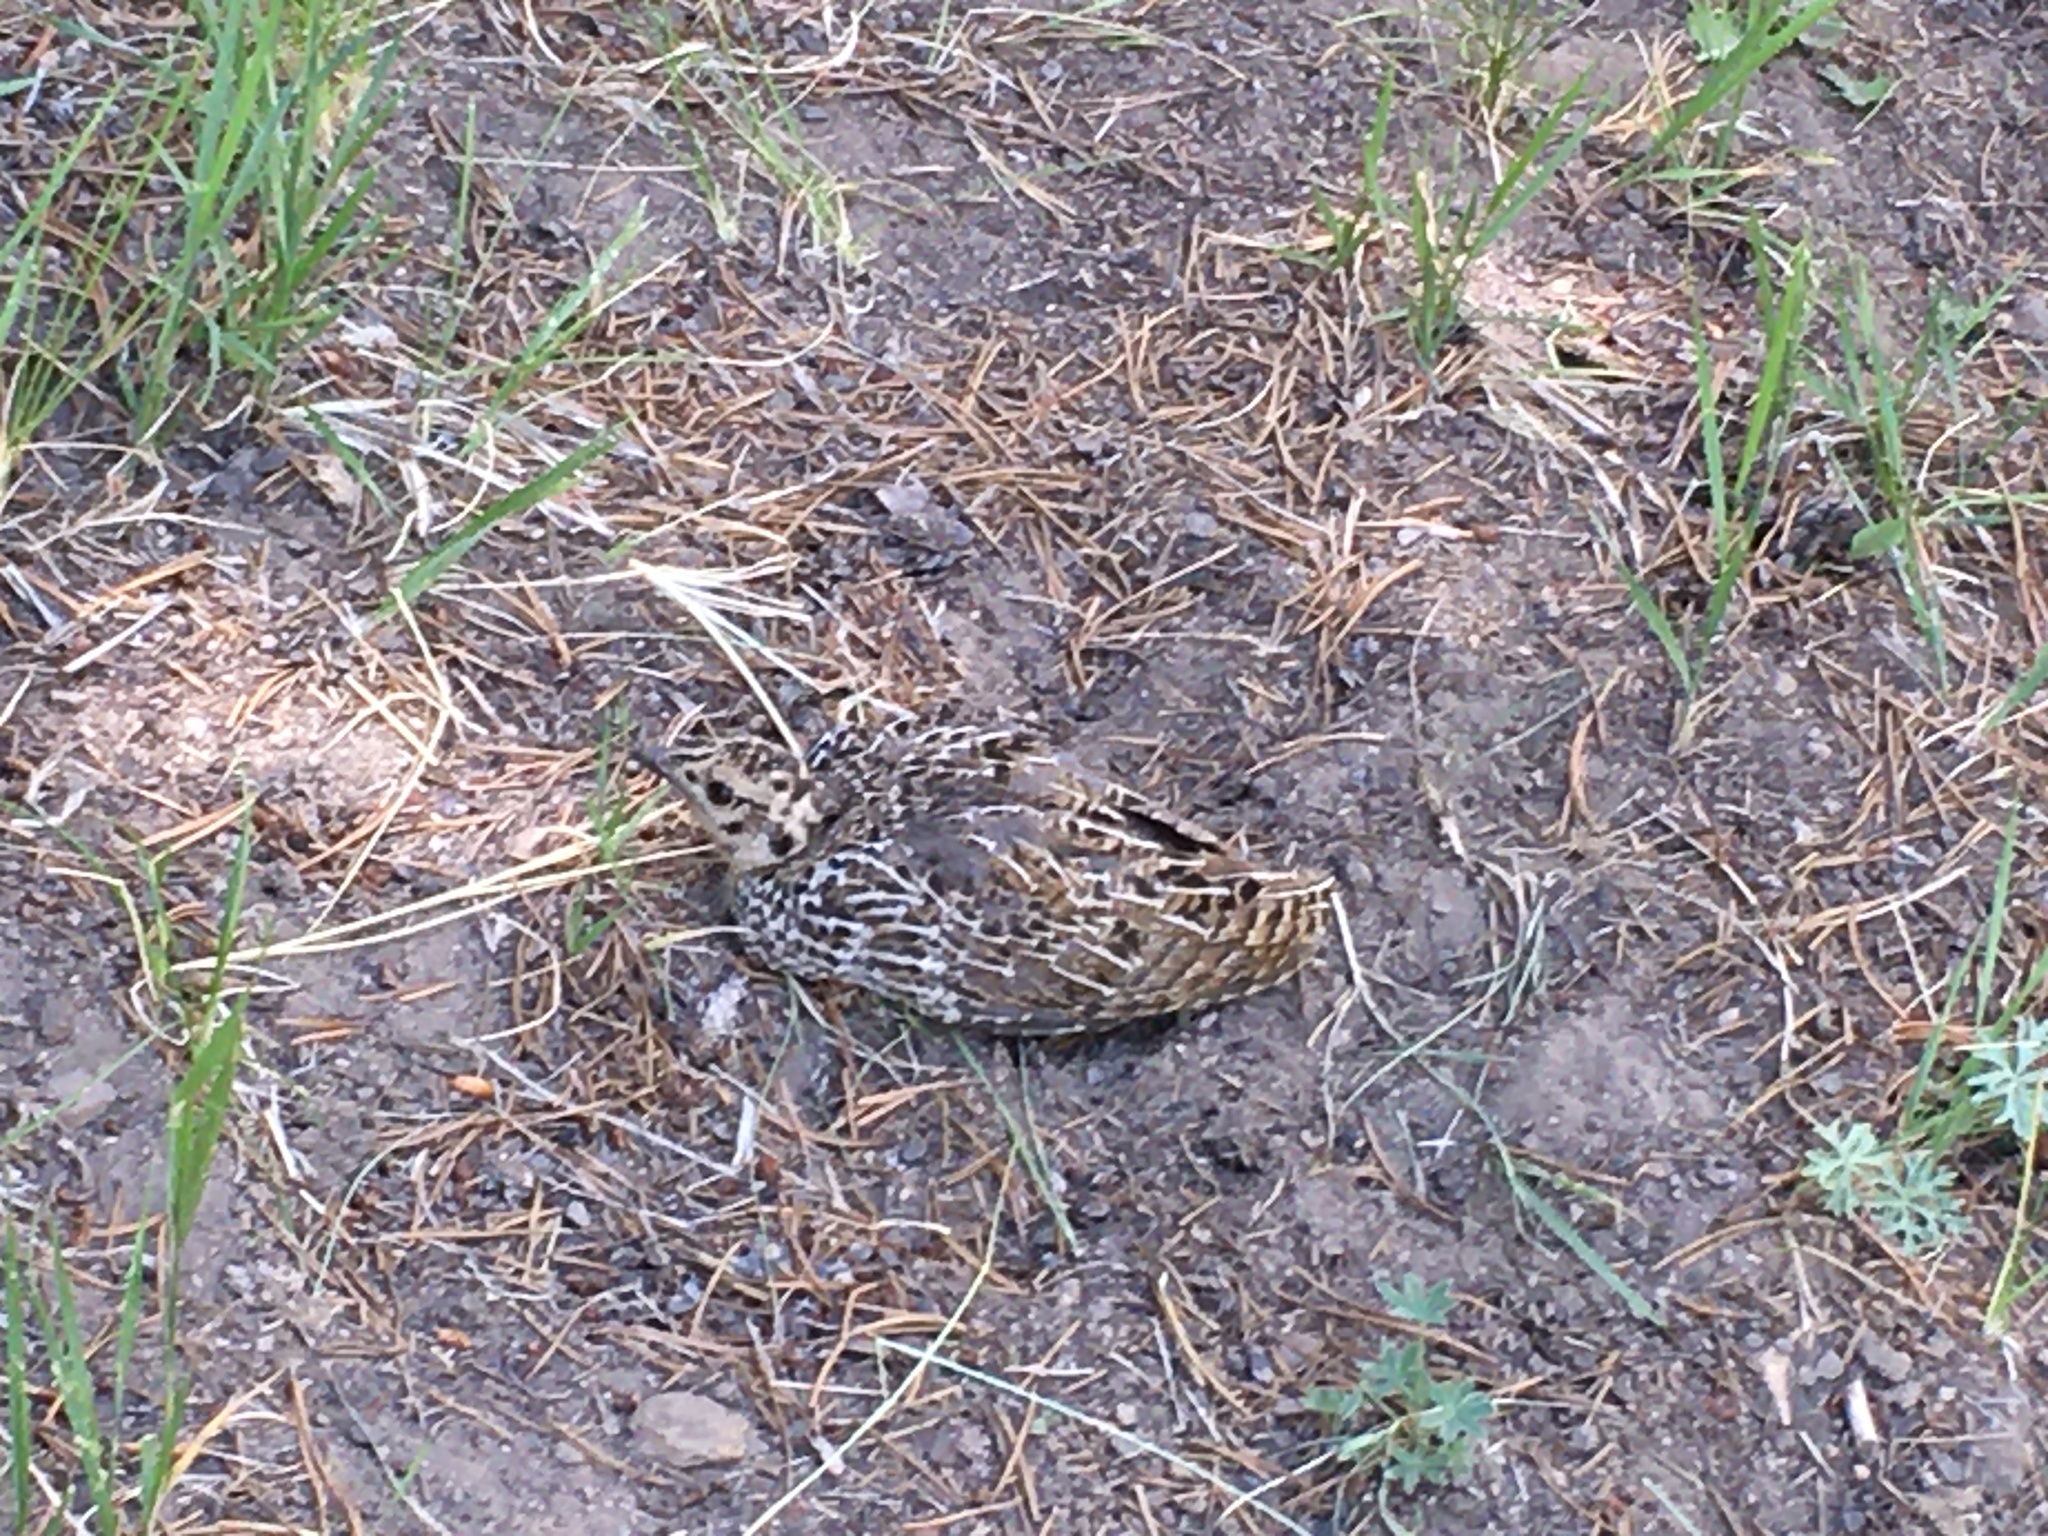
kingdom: Animalia
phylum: Chordata
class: Aves
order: Galliformes
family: Phasianidae
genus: Dendragapus
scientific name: Dendragapus fuliginosus
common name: Sooty grouse
